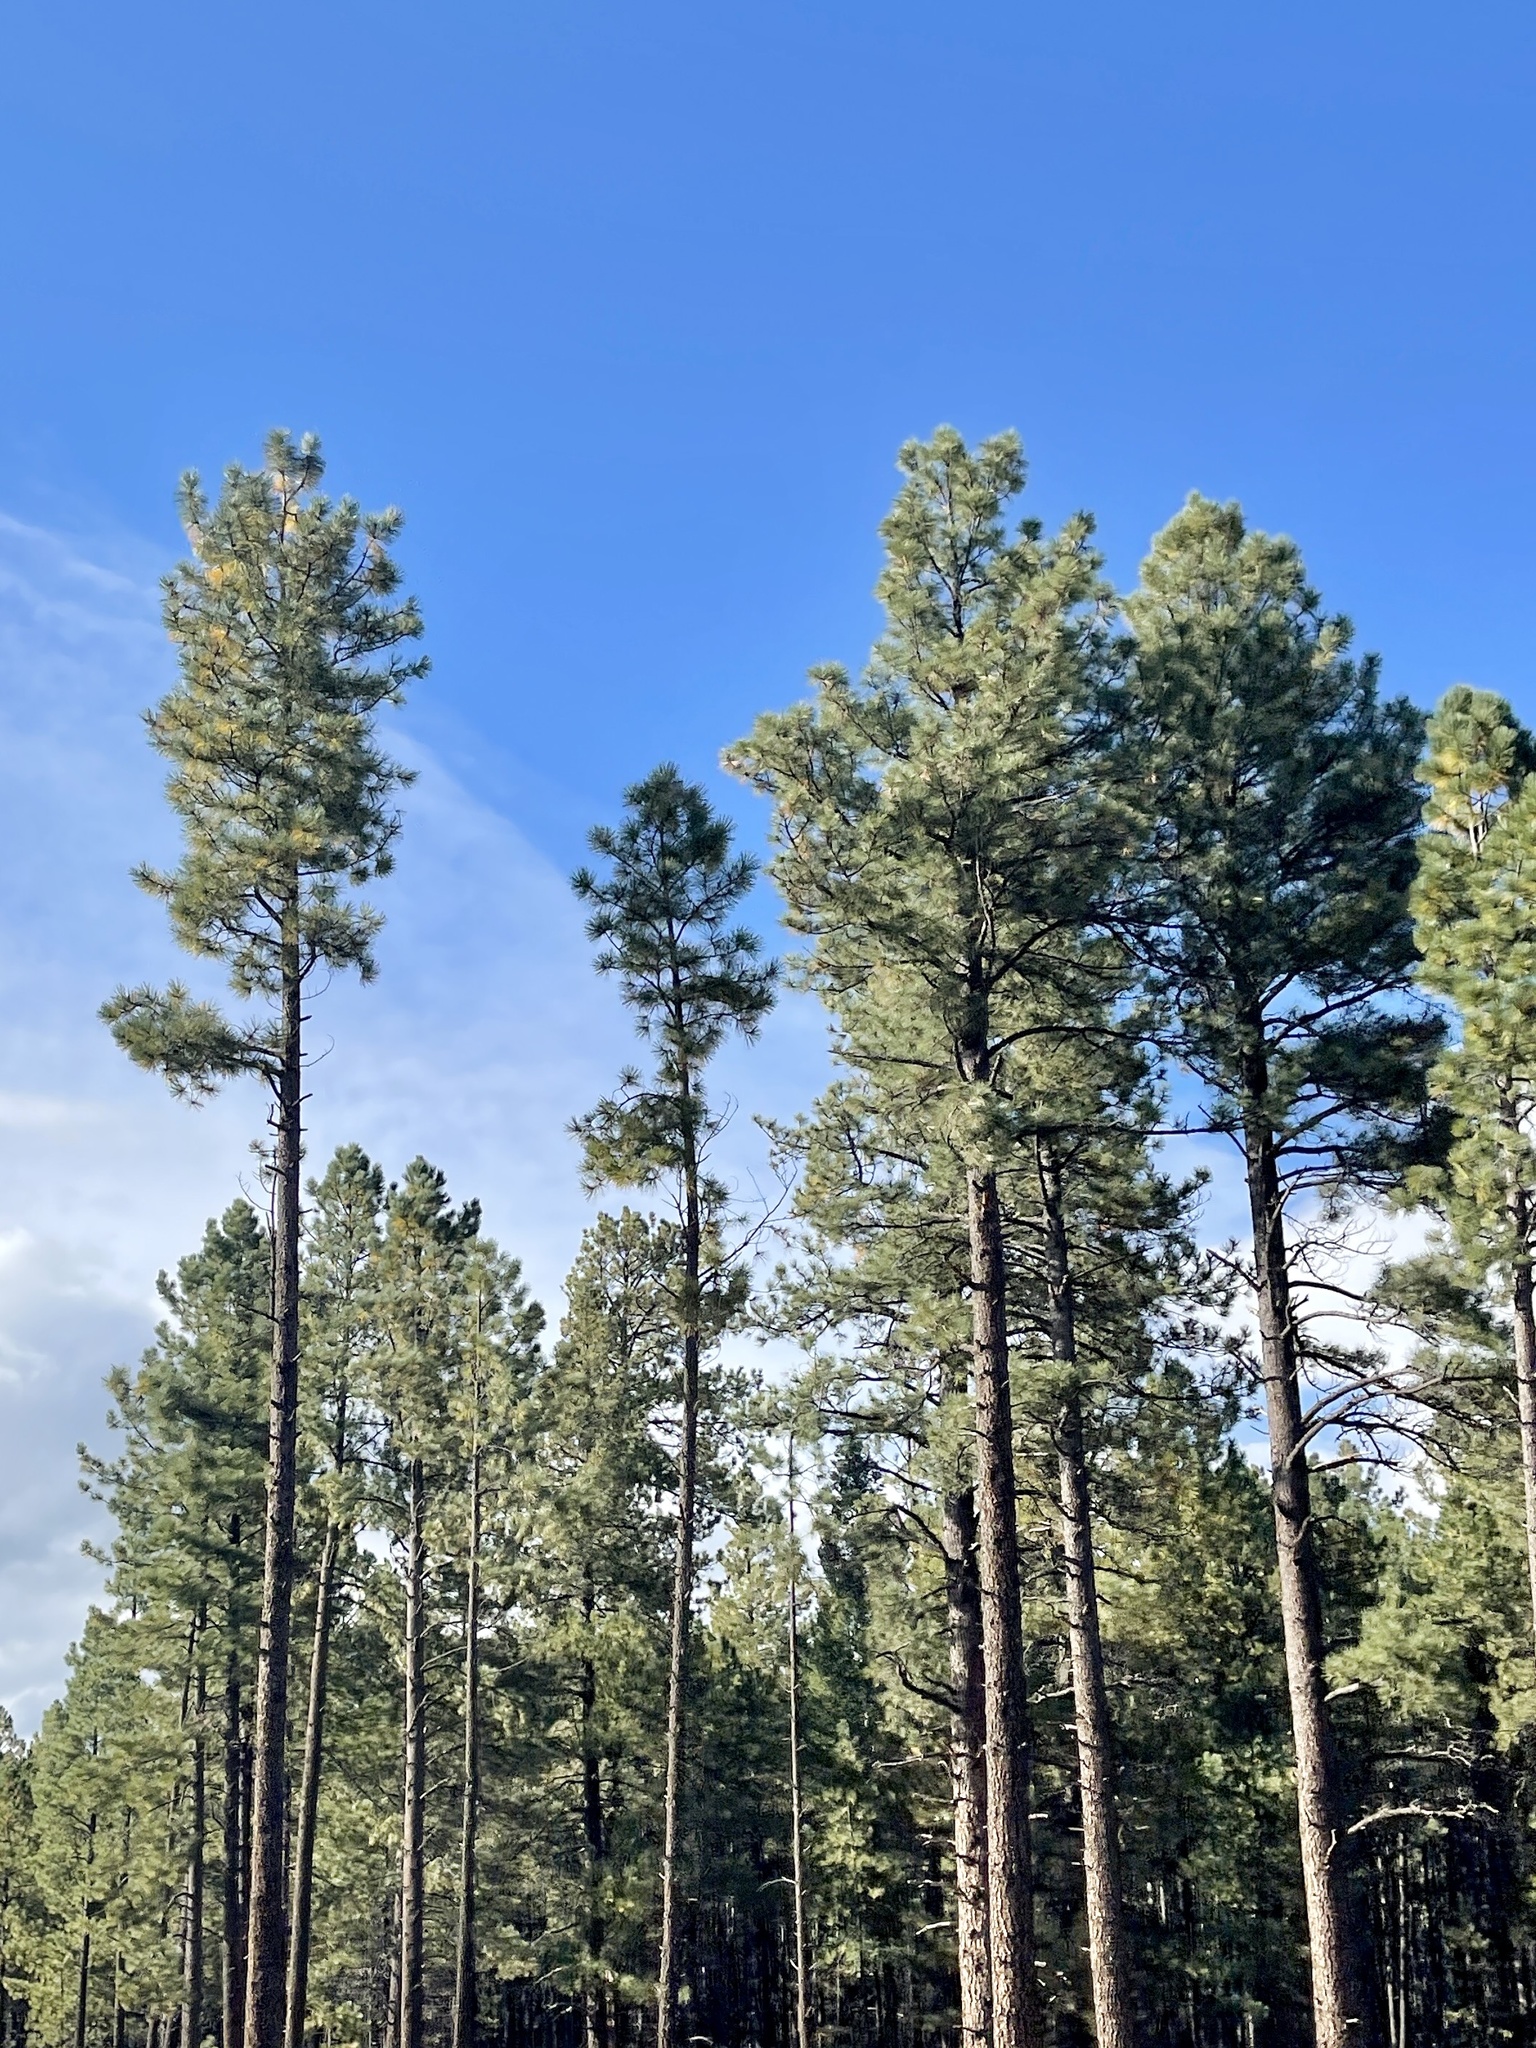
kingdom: Plantae
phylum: Tracheophyta
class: Pinopsida
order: Pinales
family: Pinaceae
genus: Pinus
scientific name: Pinus ponderosa
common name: Western yellow-pine
